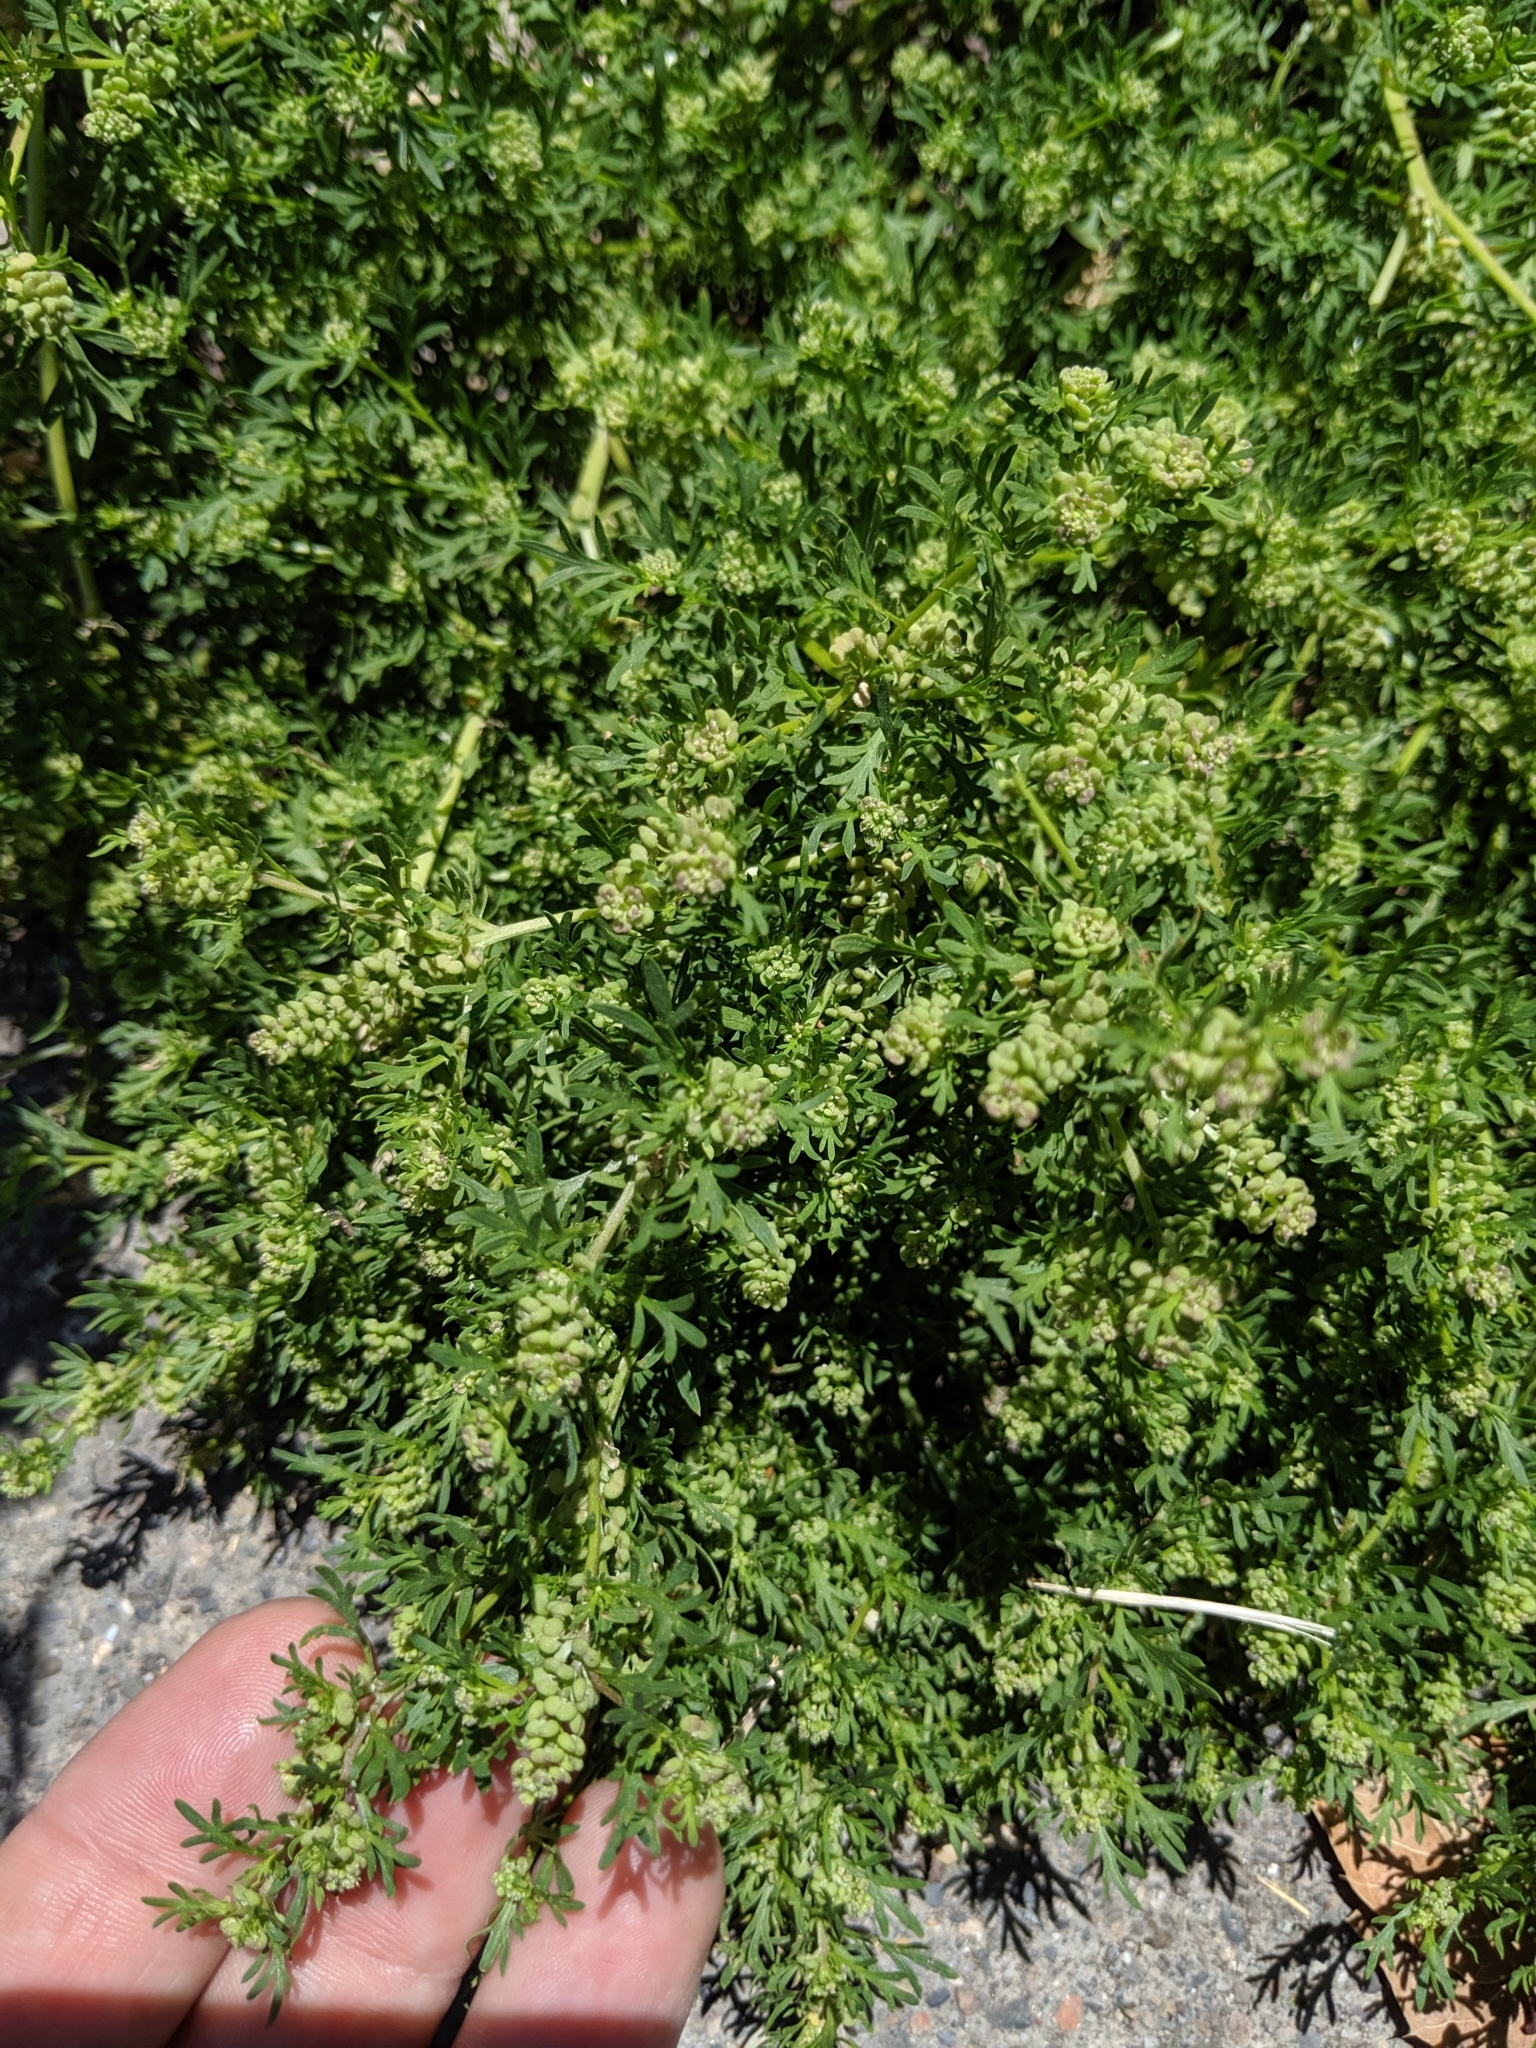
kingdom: Plantae
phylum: Tracheophyta
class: Magnoliopsida
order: Brassicales
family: Brassicaceae
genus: Lepidium
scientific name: Lepidium didymum
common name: Lesser swinecress
